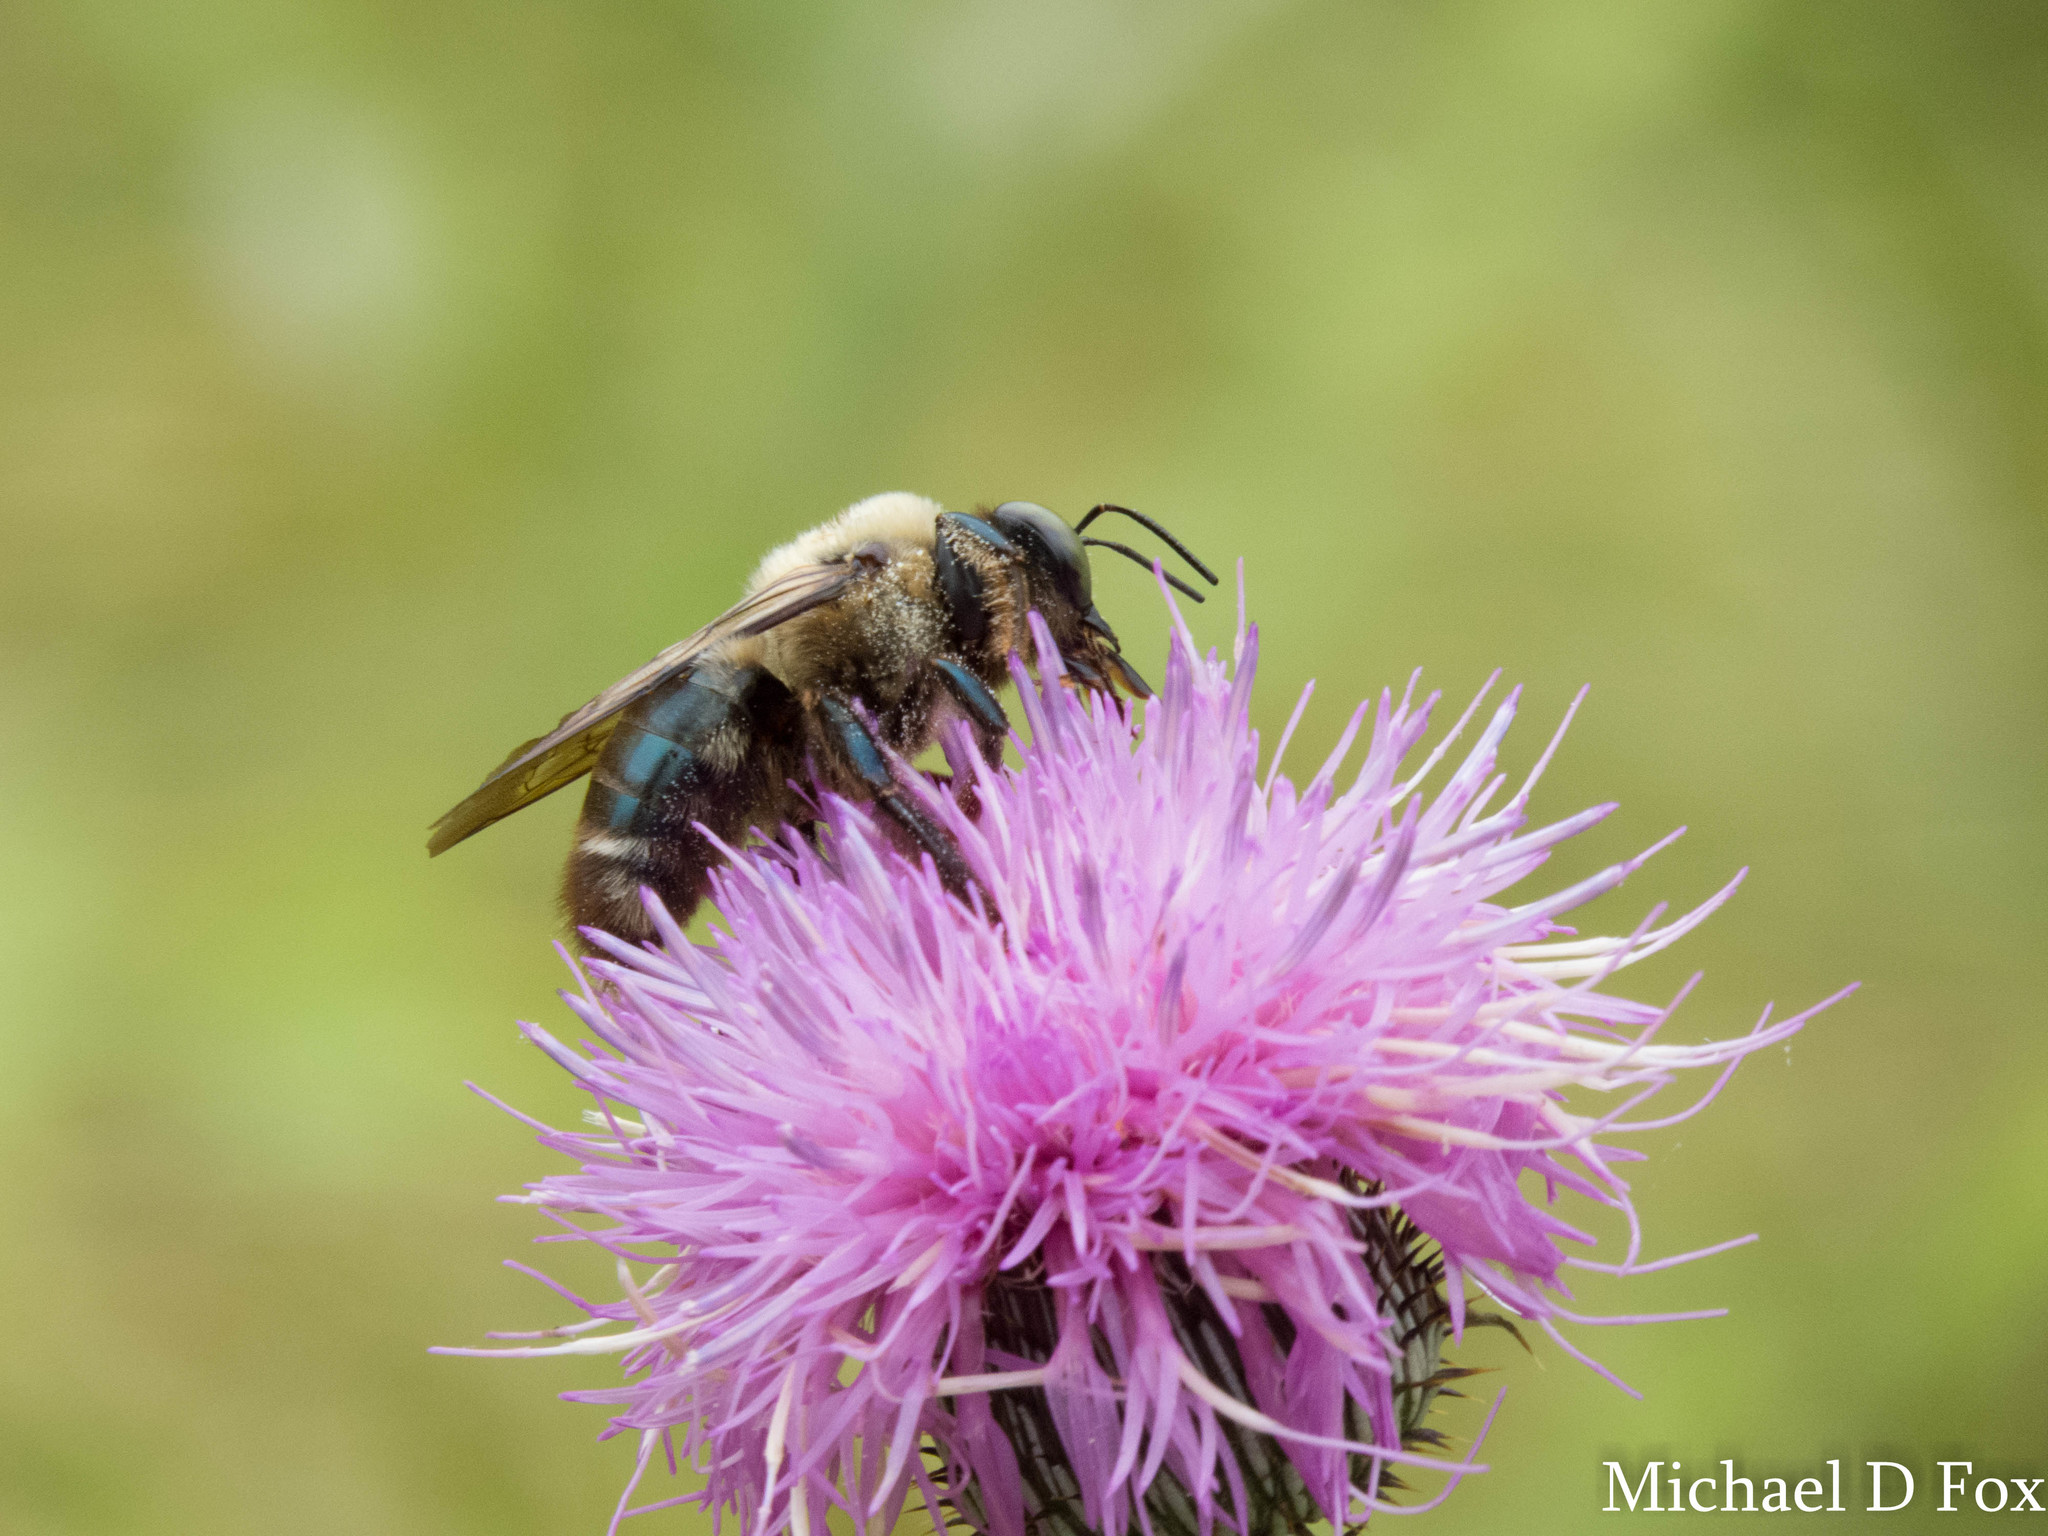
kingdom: Animalia
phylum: Arthropoda
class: Insecta
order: Hymenoptera
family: Apidae
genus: Xylocopa
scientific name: Xylocopa virginica
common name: Carpenter bee
